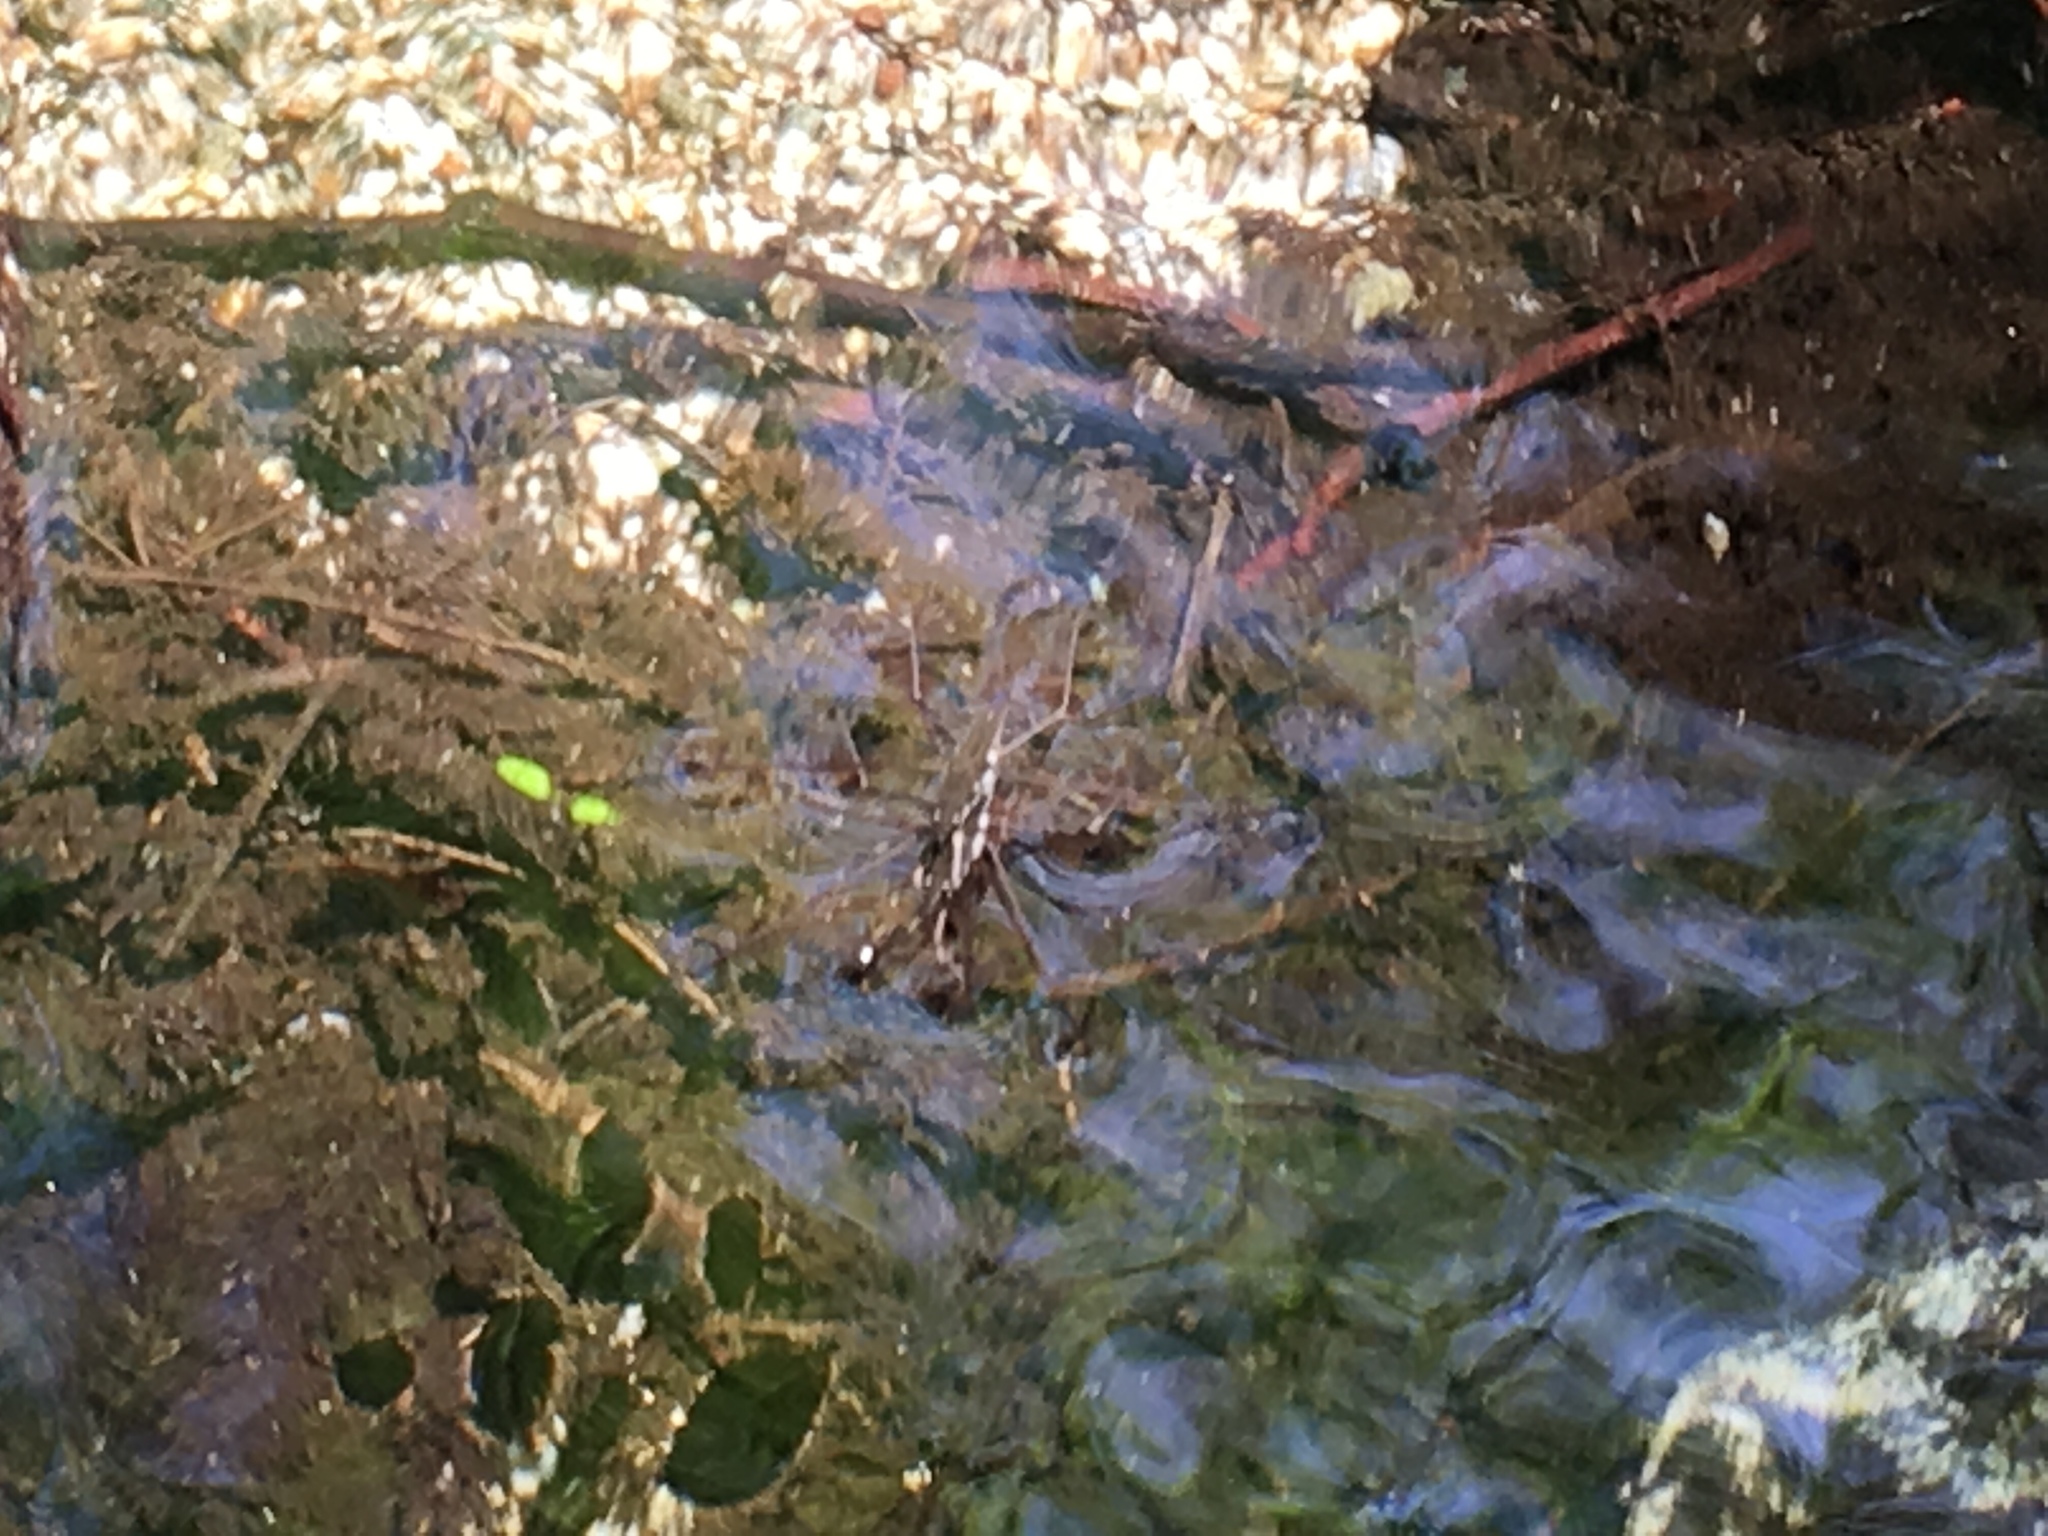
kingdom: Animalia
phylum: Arthropoda
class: Insecta
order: Hemiptera
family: Gerridae
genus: Aquarius
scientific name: Aquarius remigis
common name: Common water strider
